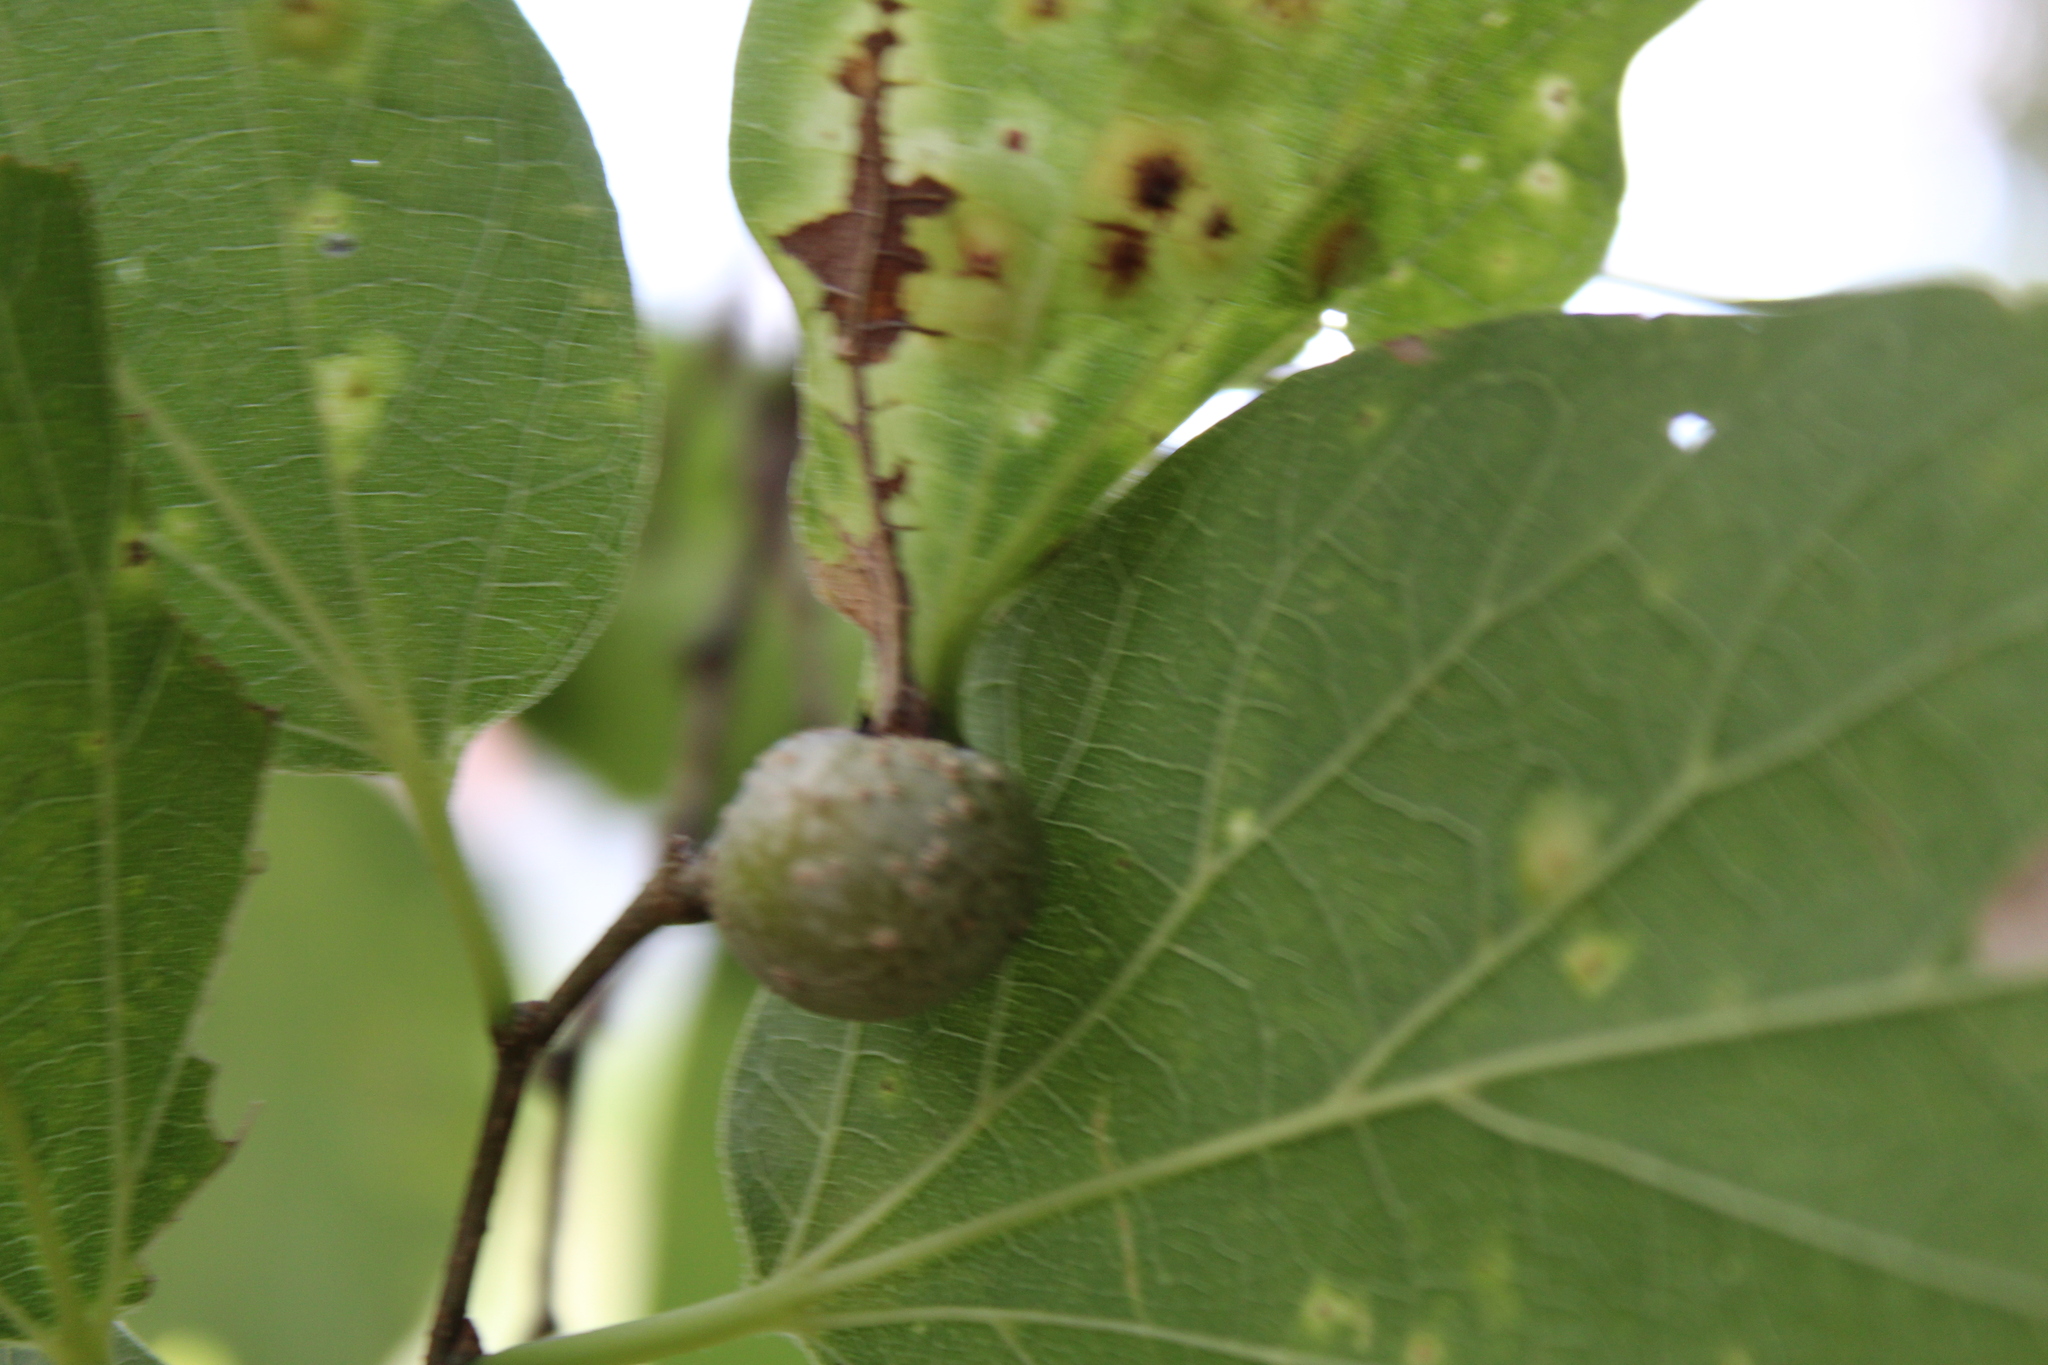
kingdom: Animalia
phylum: Arthropoda
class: Insecta
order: Hemiptera
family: Aphalaridae
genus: Pachypsylla
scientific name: Pachypsylla venusta
